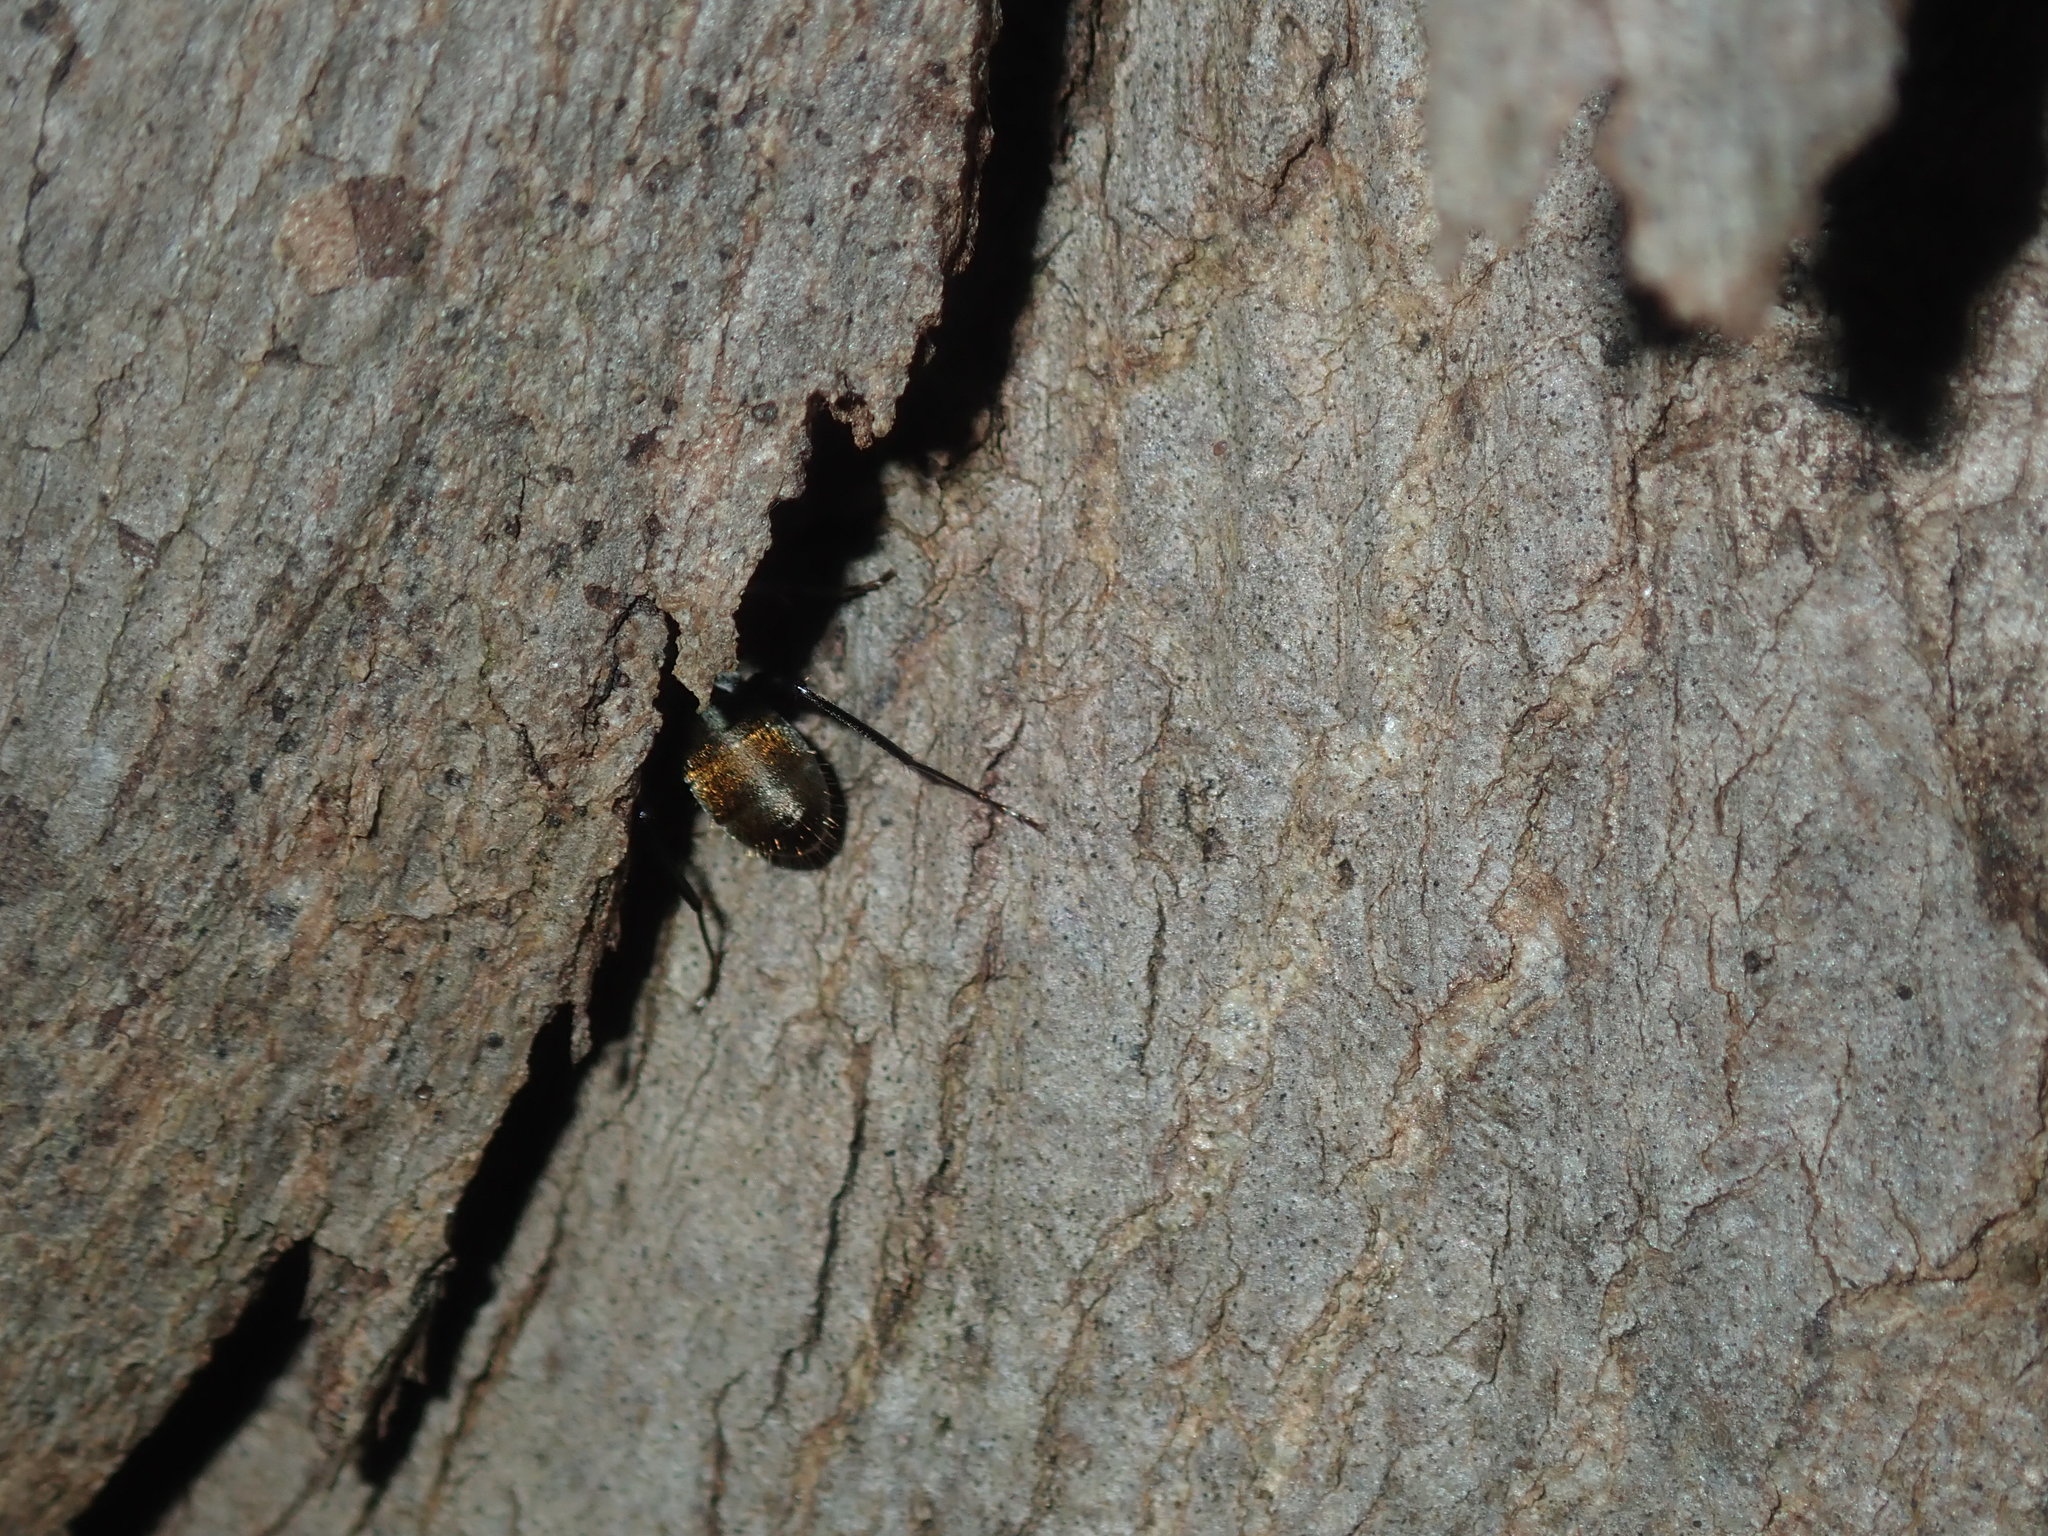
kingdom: Animalia
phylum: Arthropoda
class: Insecta
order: Hymenoptera
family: Formicidae
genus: Camponotus
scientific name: Camponotus aeneopilosus
